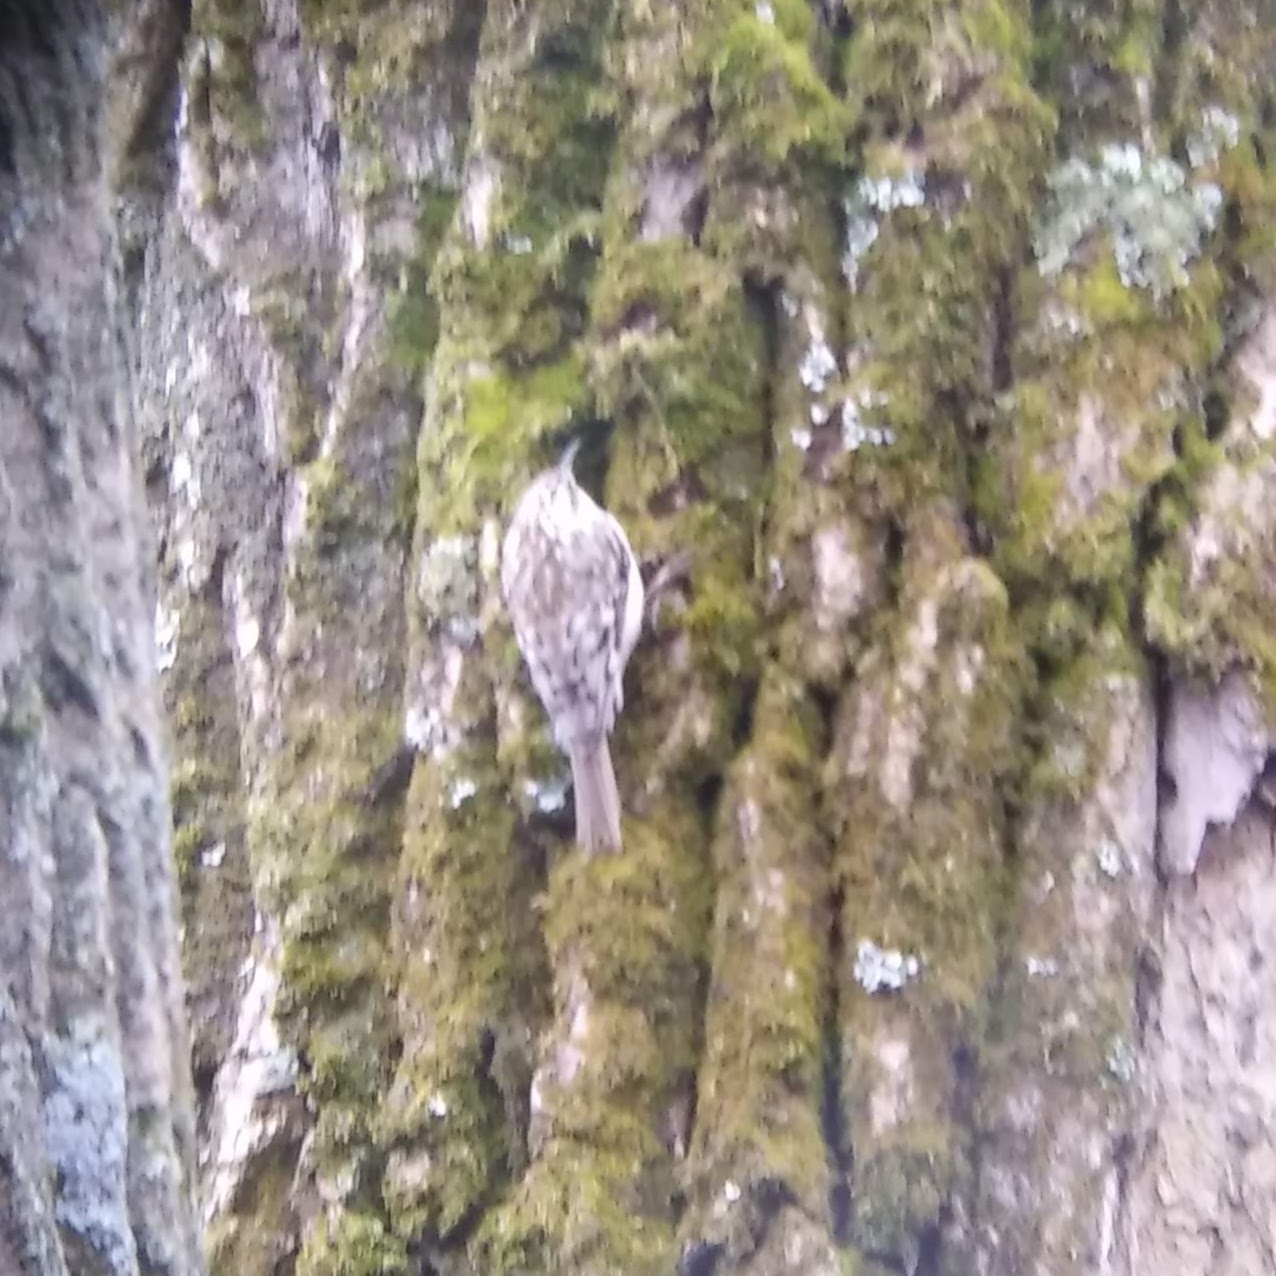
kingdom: Animalia
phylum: Chordata
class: Aves
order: Passeriformes
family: Certhiidae
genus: Certhia
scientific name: Certhia americana
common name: Brown creeper
